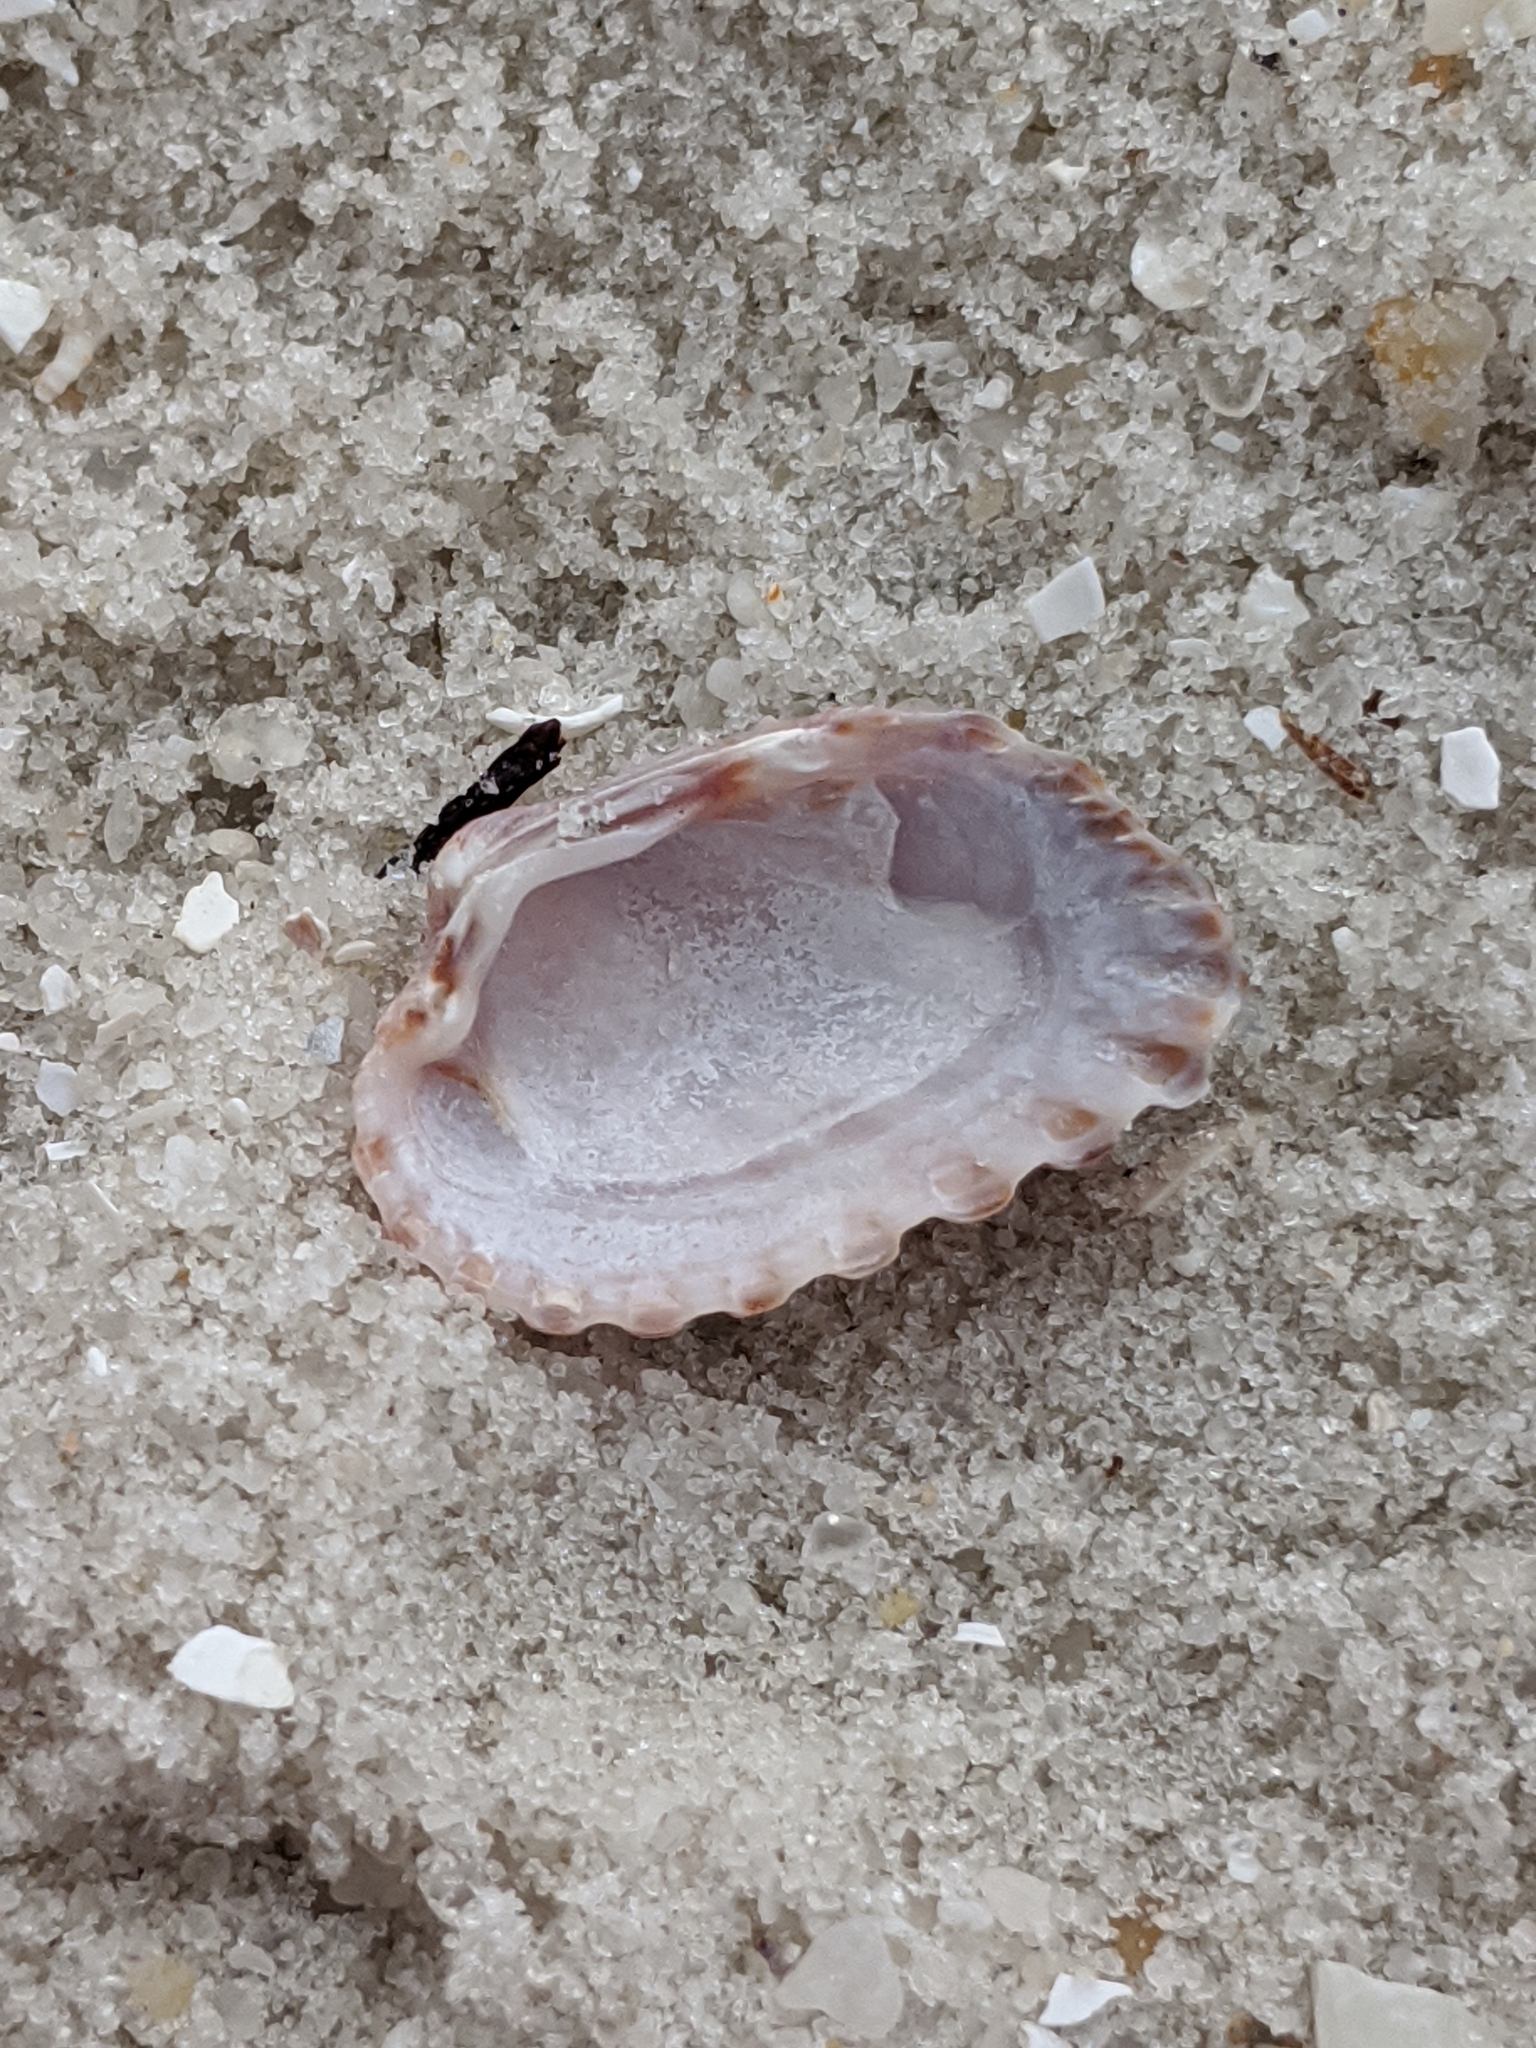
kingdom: Animalia
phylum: Mollusca
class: Bivalvia
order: Carditida
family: Carditidae
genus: Cardites
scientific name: Cardites floridanus
